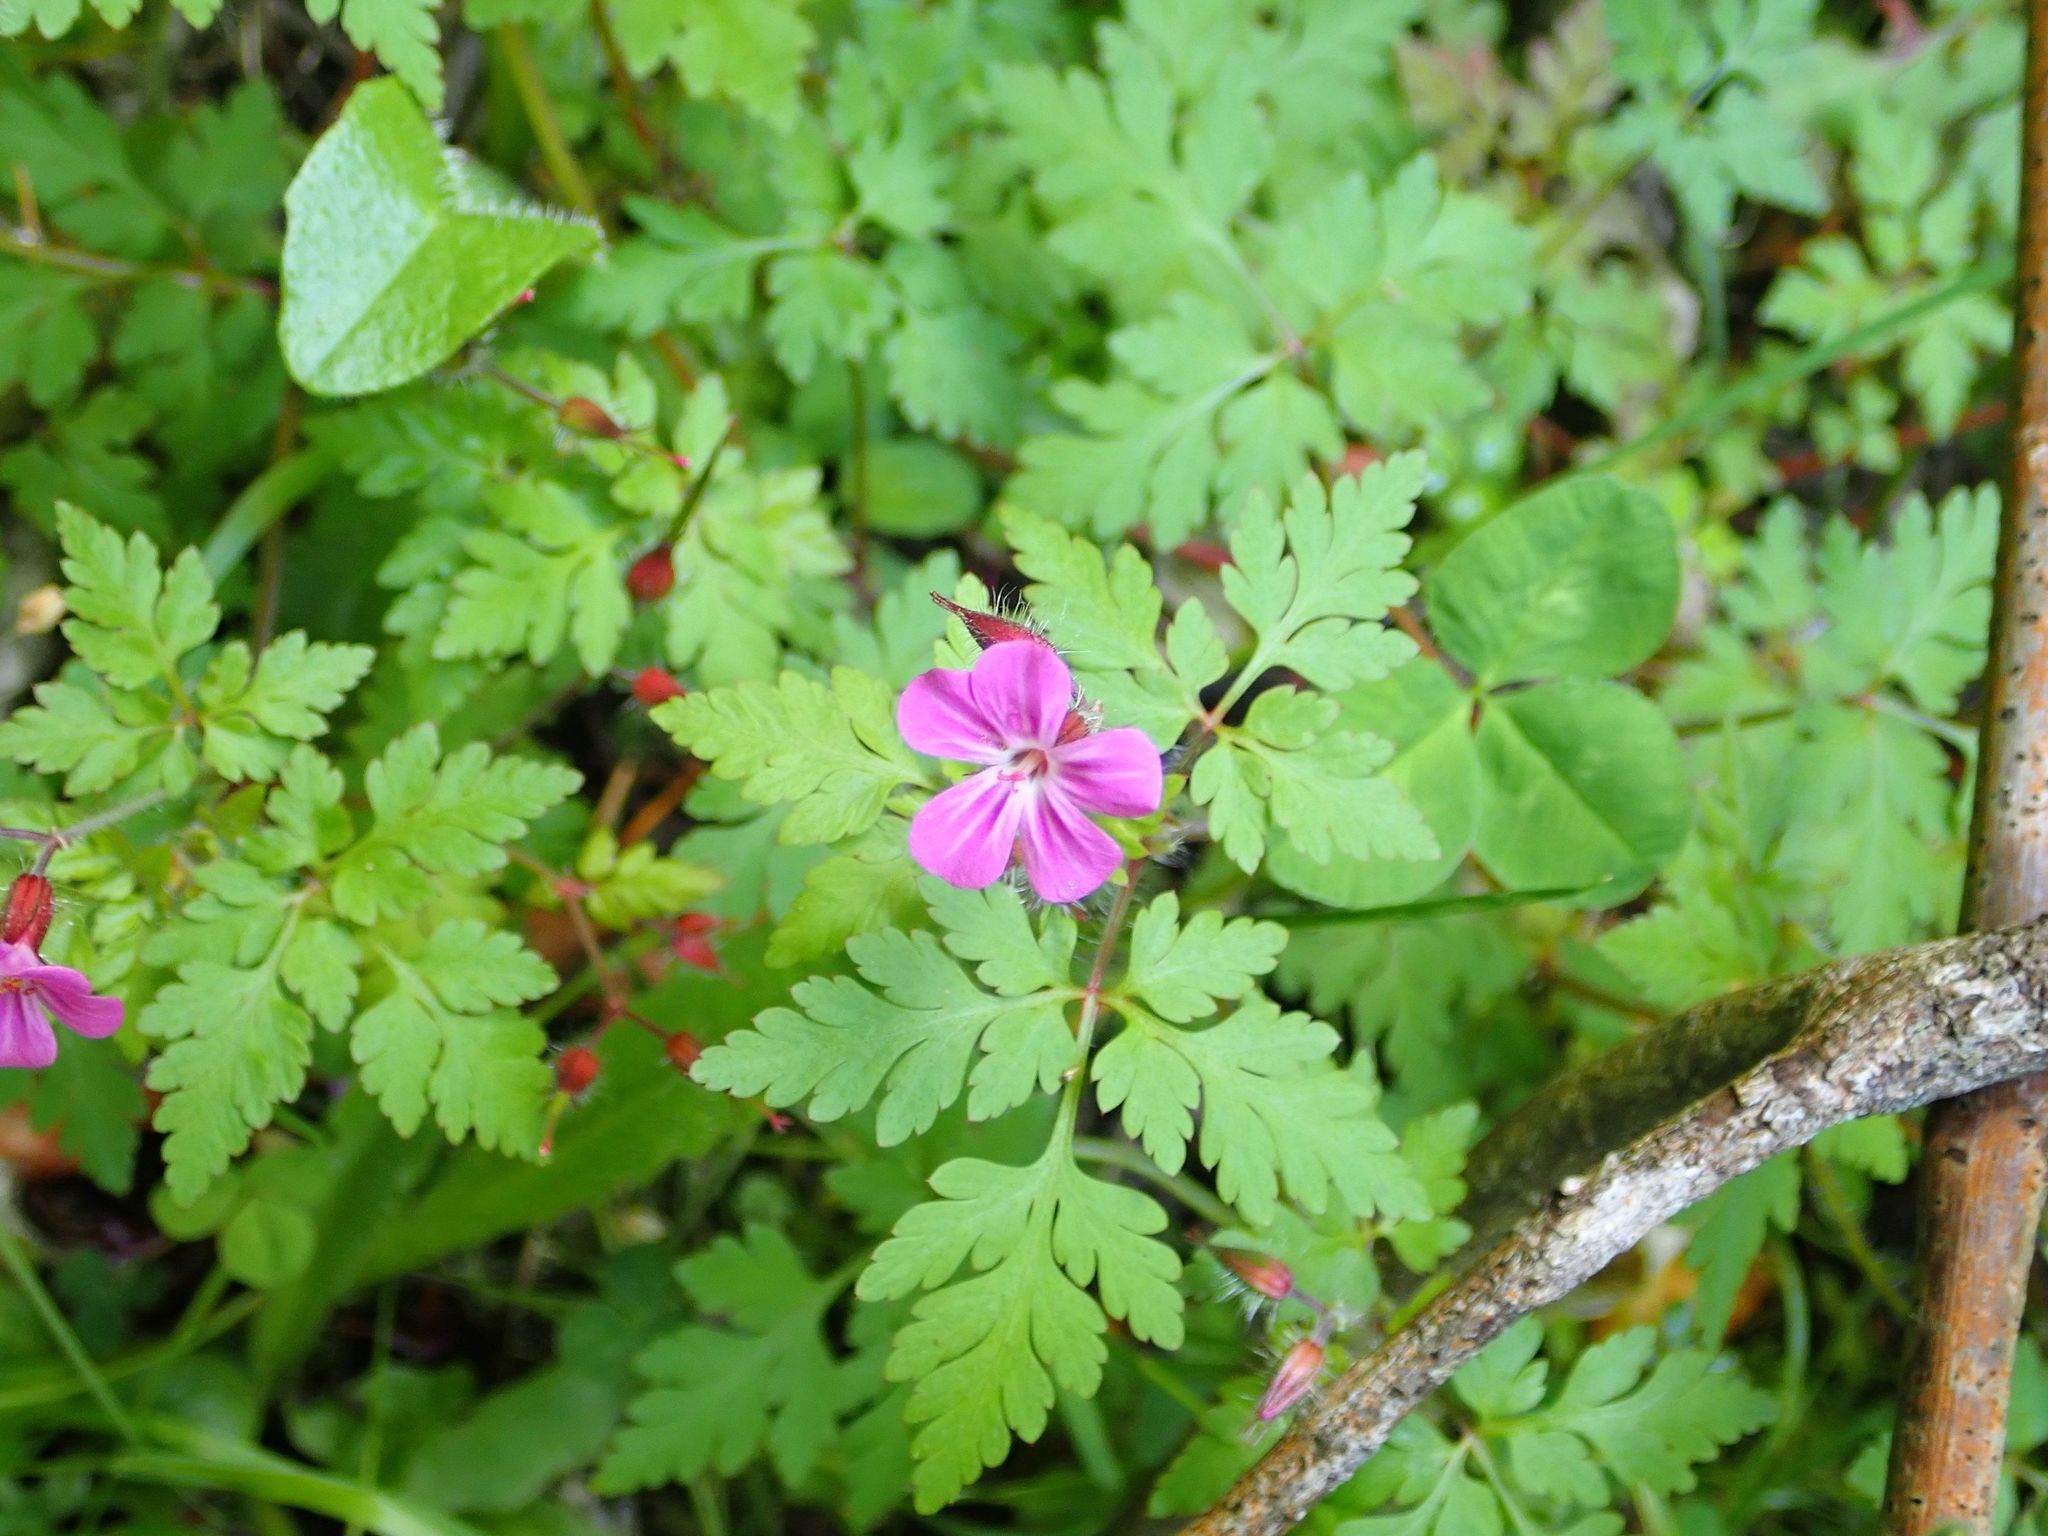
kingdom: Plantae
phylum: Tracheophyta
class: Magnoliopsida
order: Geraniales
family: Geraniaceae
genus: Geranium
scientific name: Geranium robertianum
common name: Herb-robert
